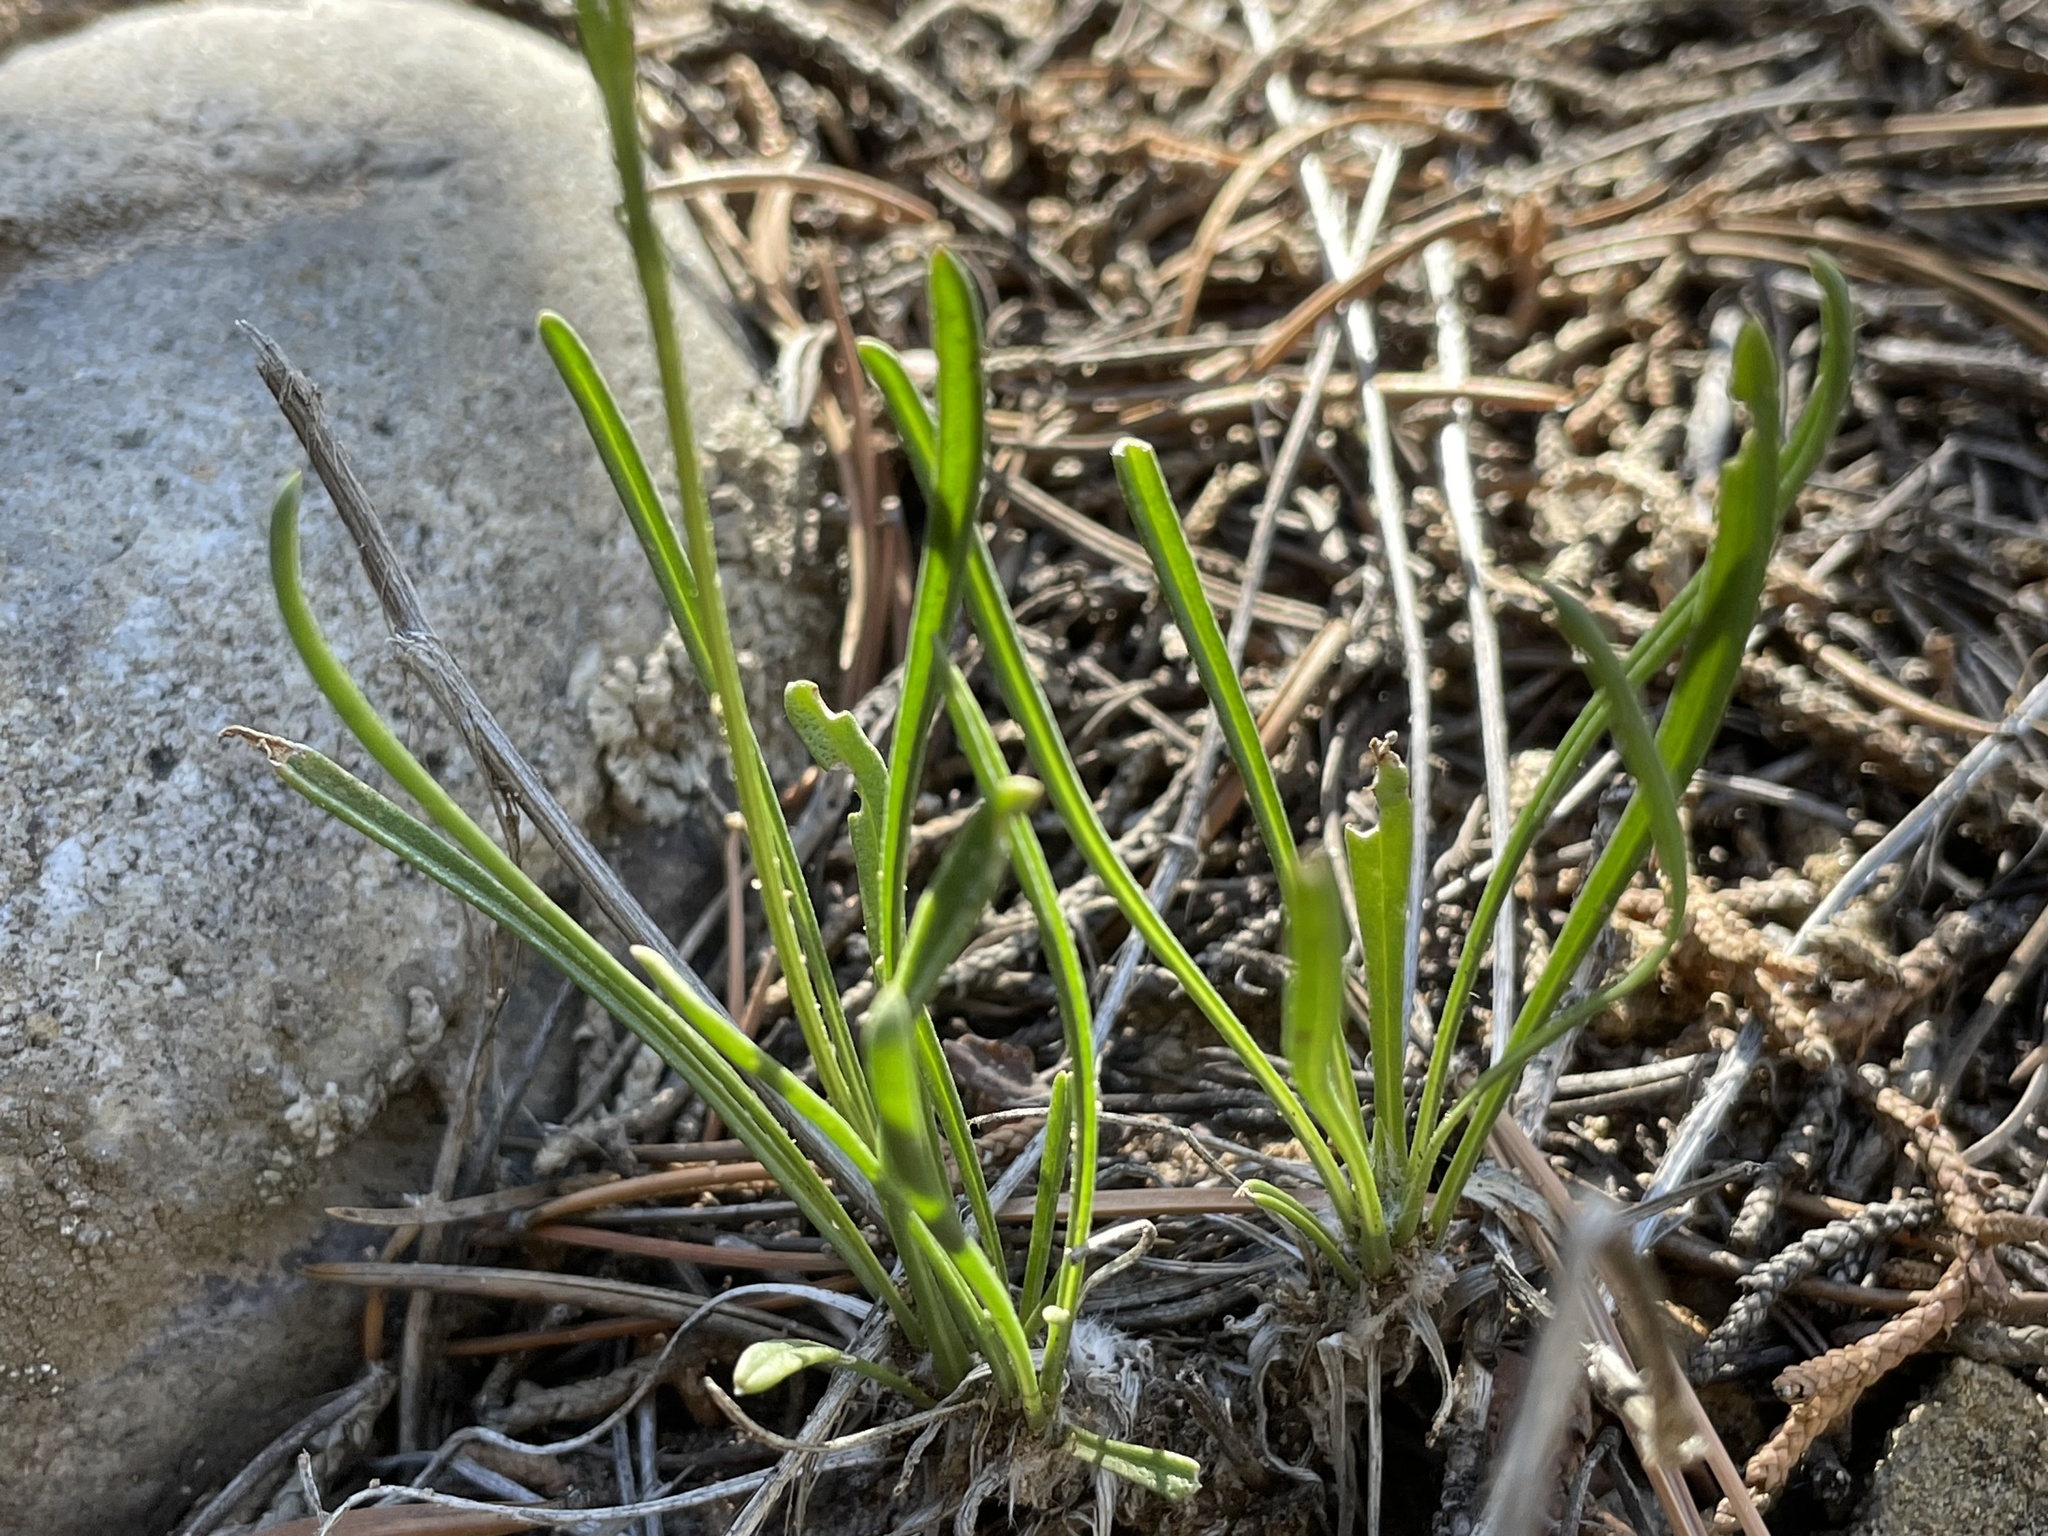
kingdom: Plantae
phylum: Tracheophyta
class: Magnoliopsida
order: Asterales
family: Asteraceae
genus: Tetraneuris
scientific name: Tetraneuris ivesiana
